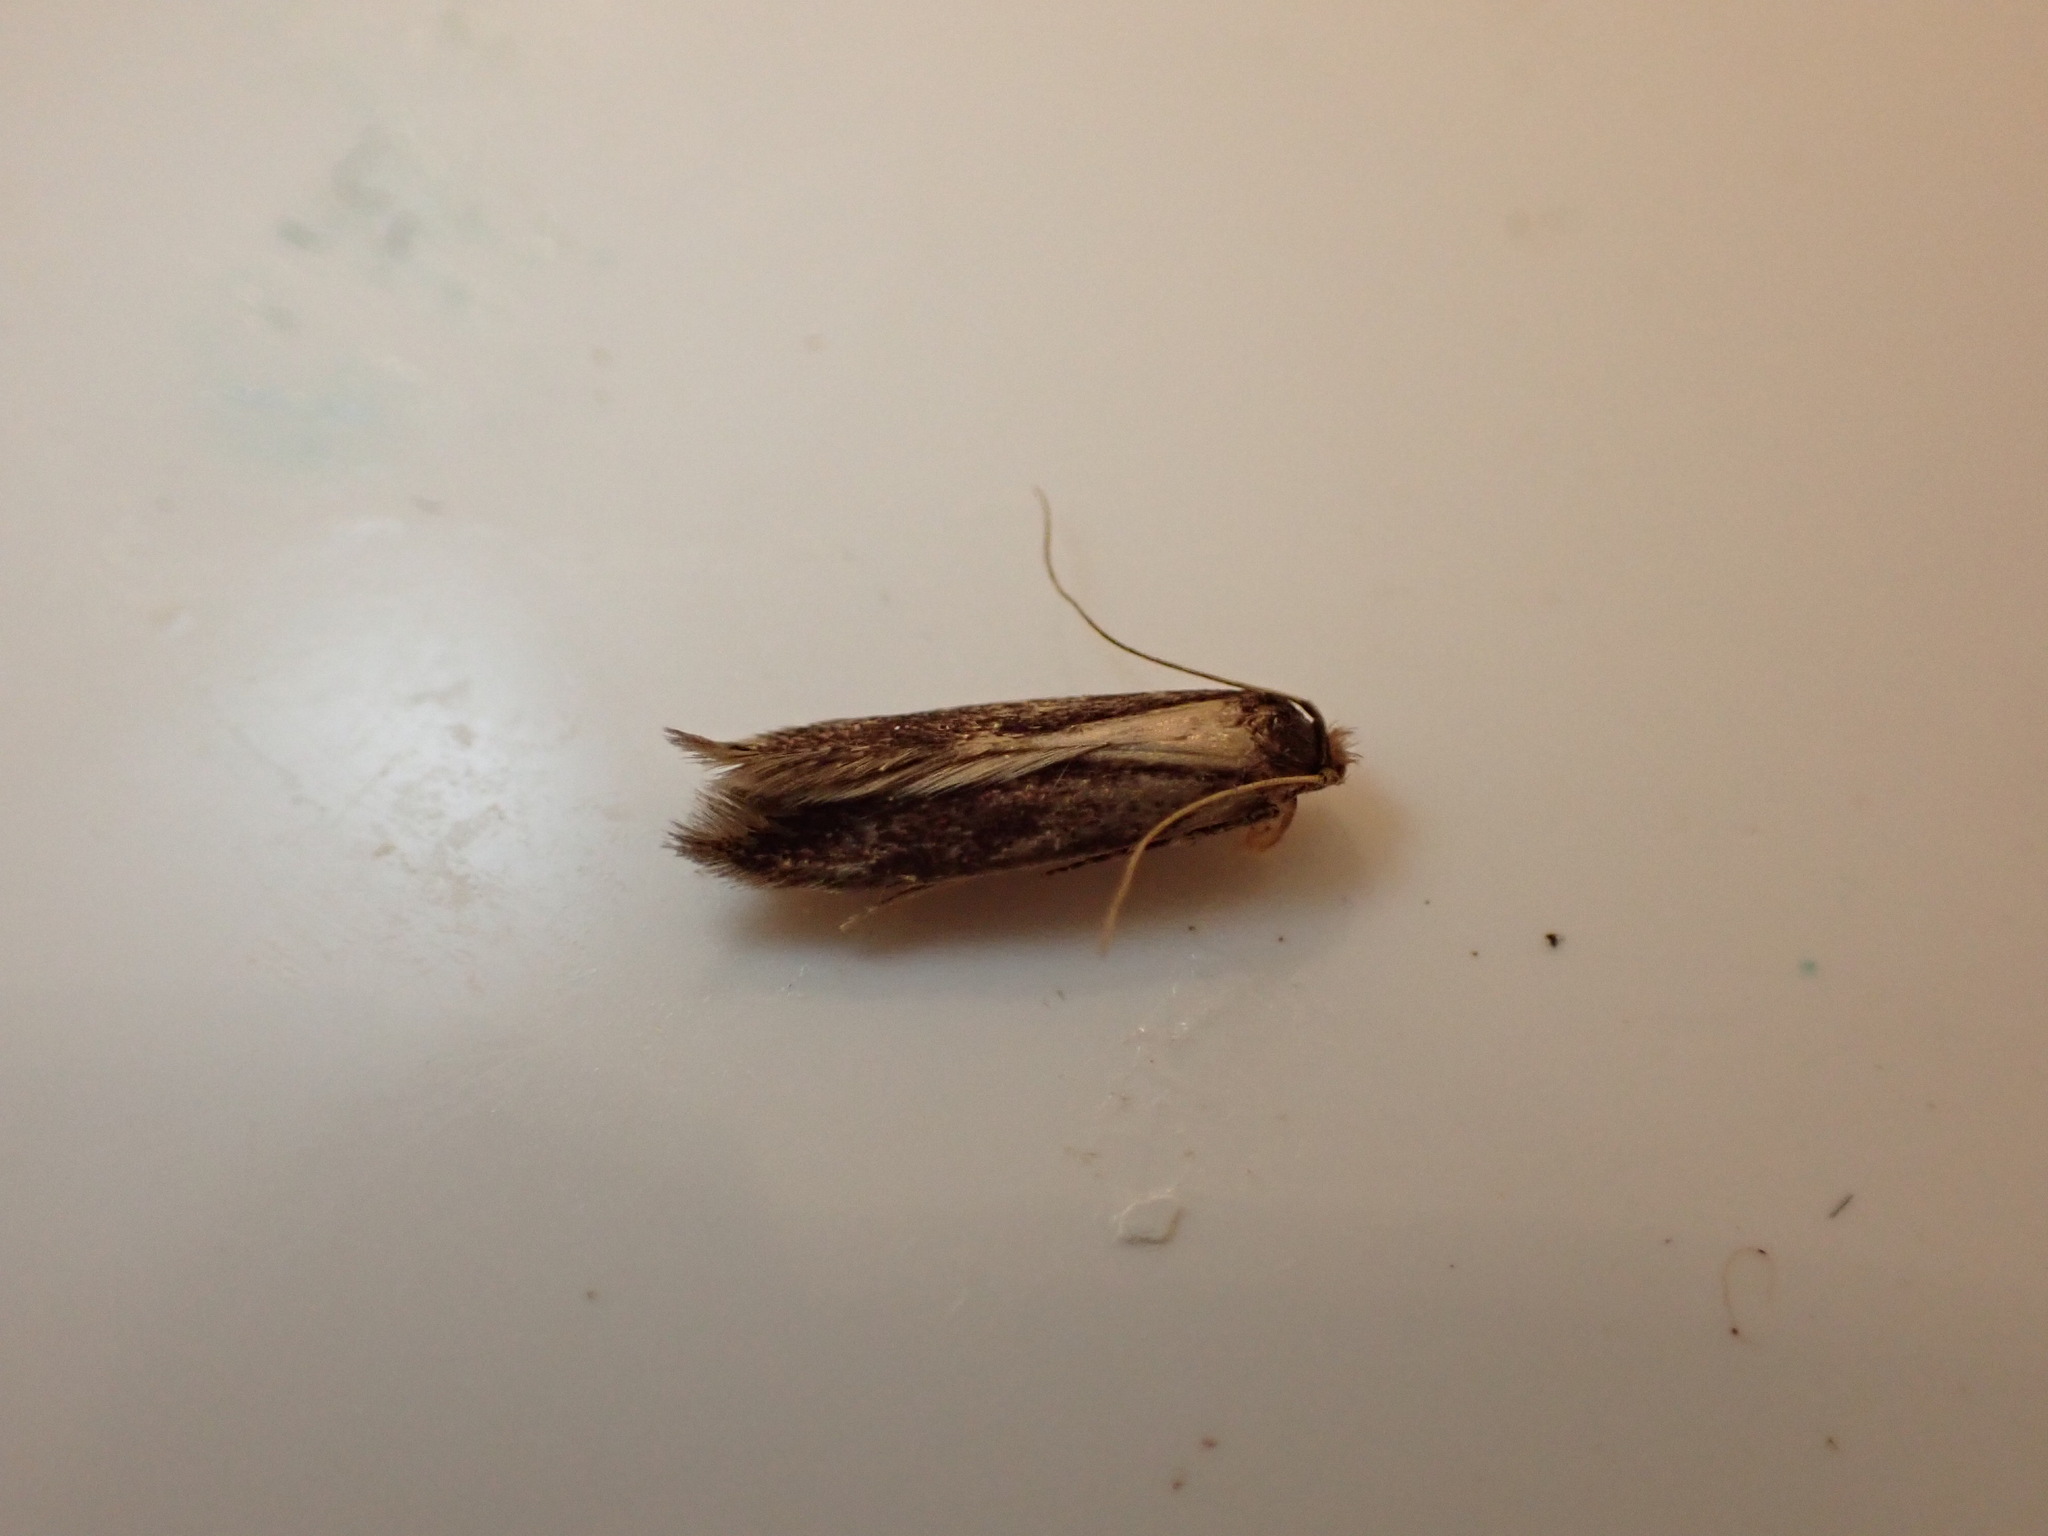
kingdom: Animalia
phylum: Arthropoda
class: Insecta
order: Lepidoptera
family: Tineidae
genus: Opogona
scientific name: Opogona omoscopa
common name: Moth
